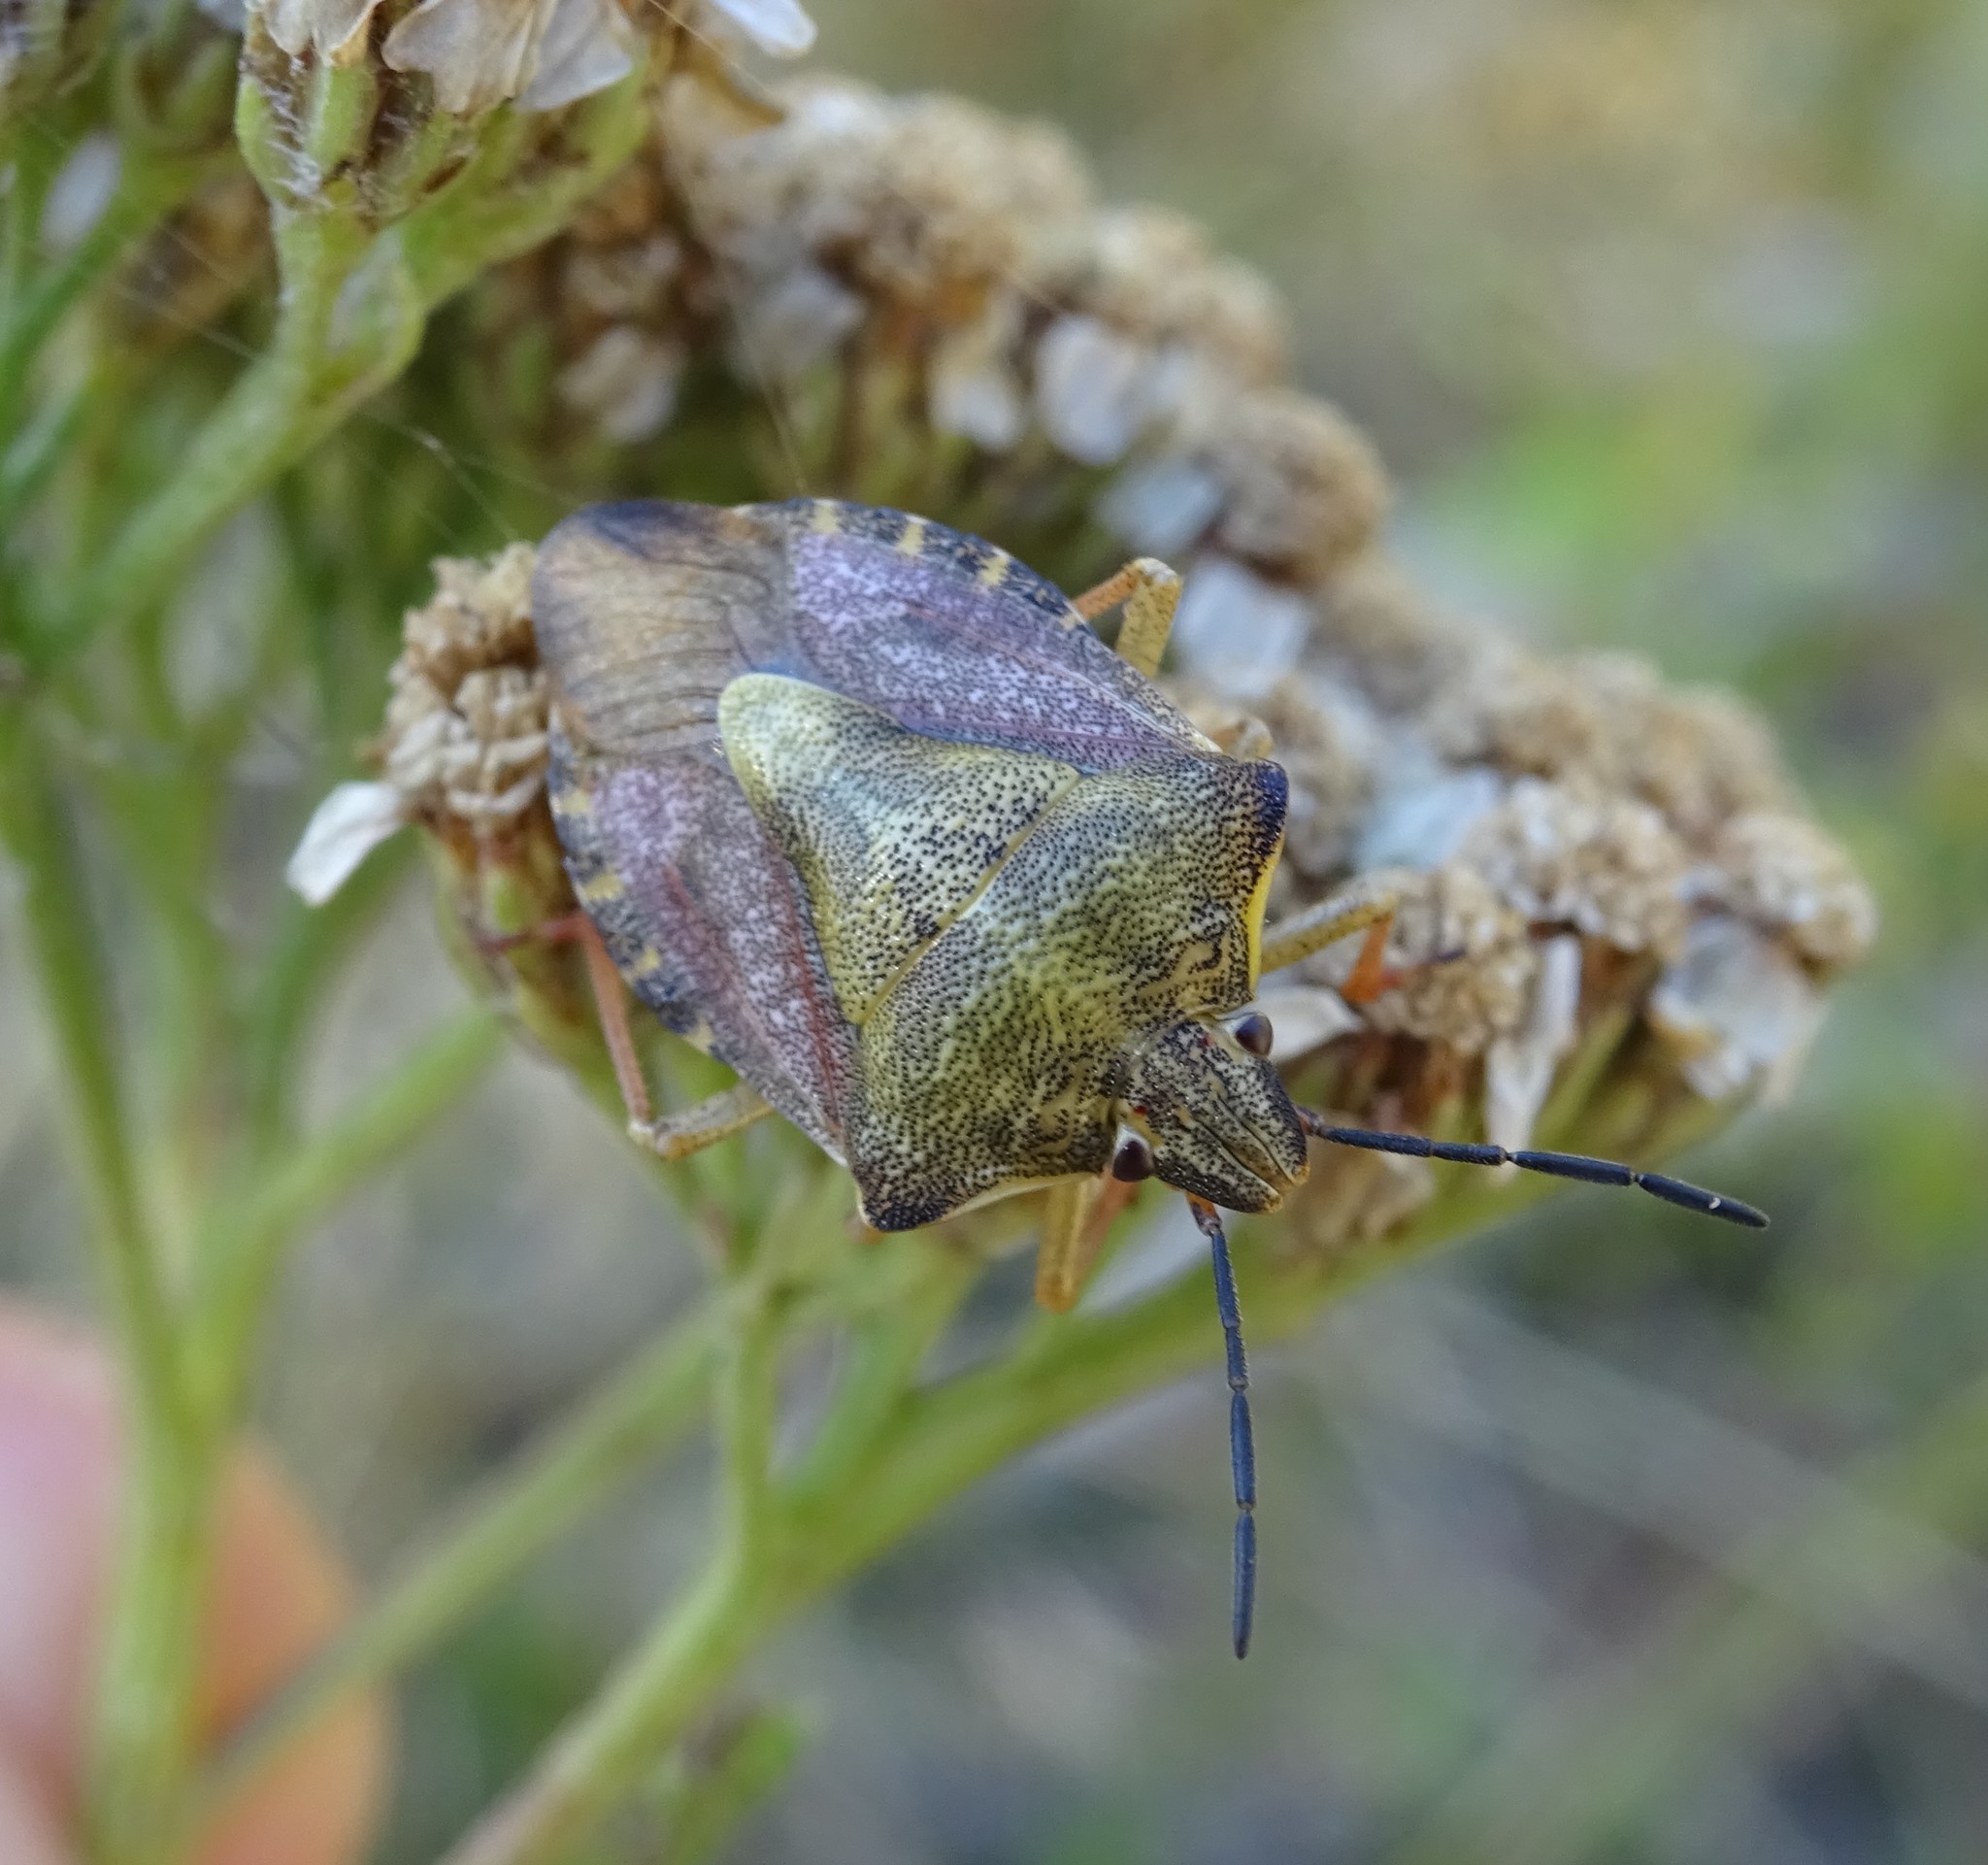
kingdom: Animalia
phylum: Arthropoda
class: Insecta
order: Hemiptera
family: Pentatomidae
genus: Carpocoris
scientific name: Carpocoris purpureipennis
